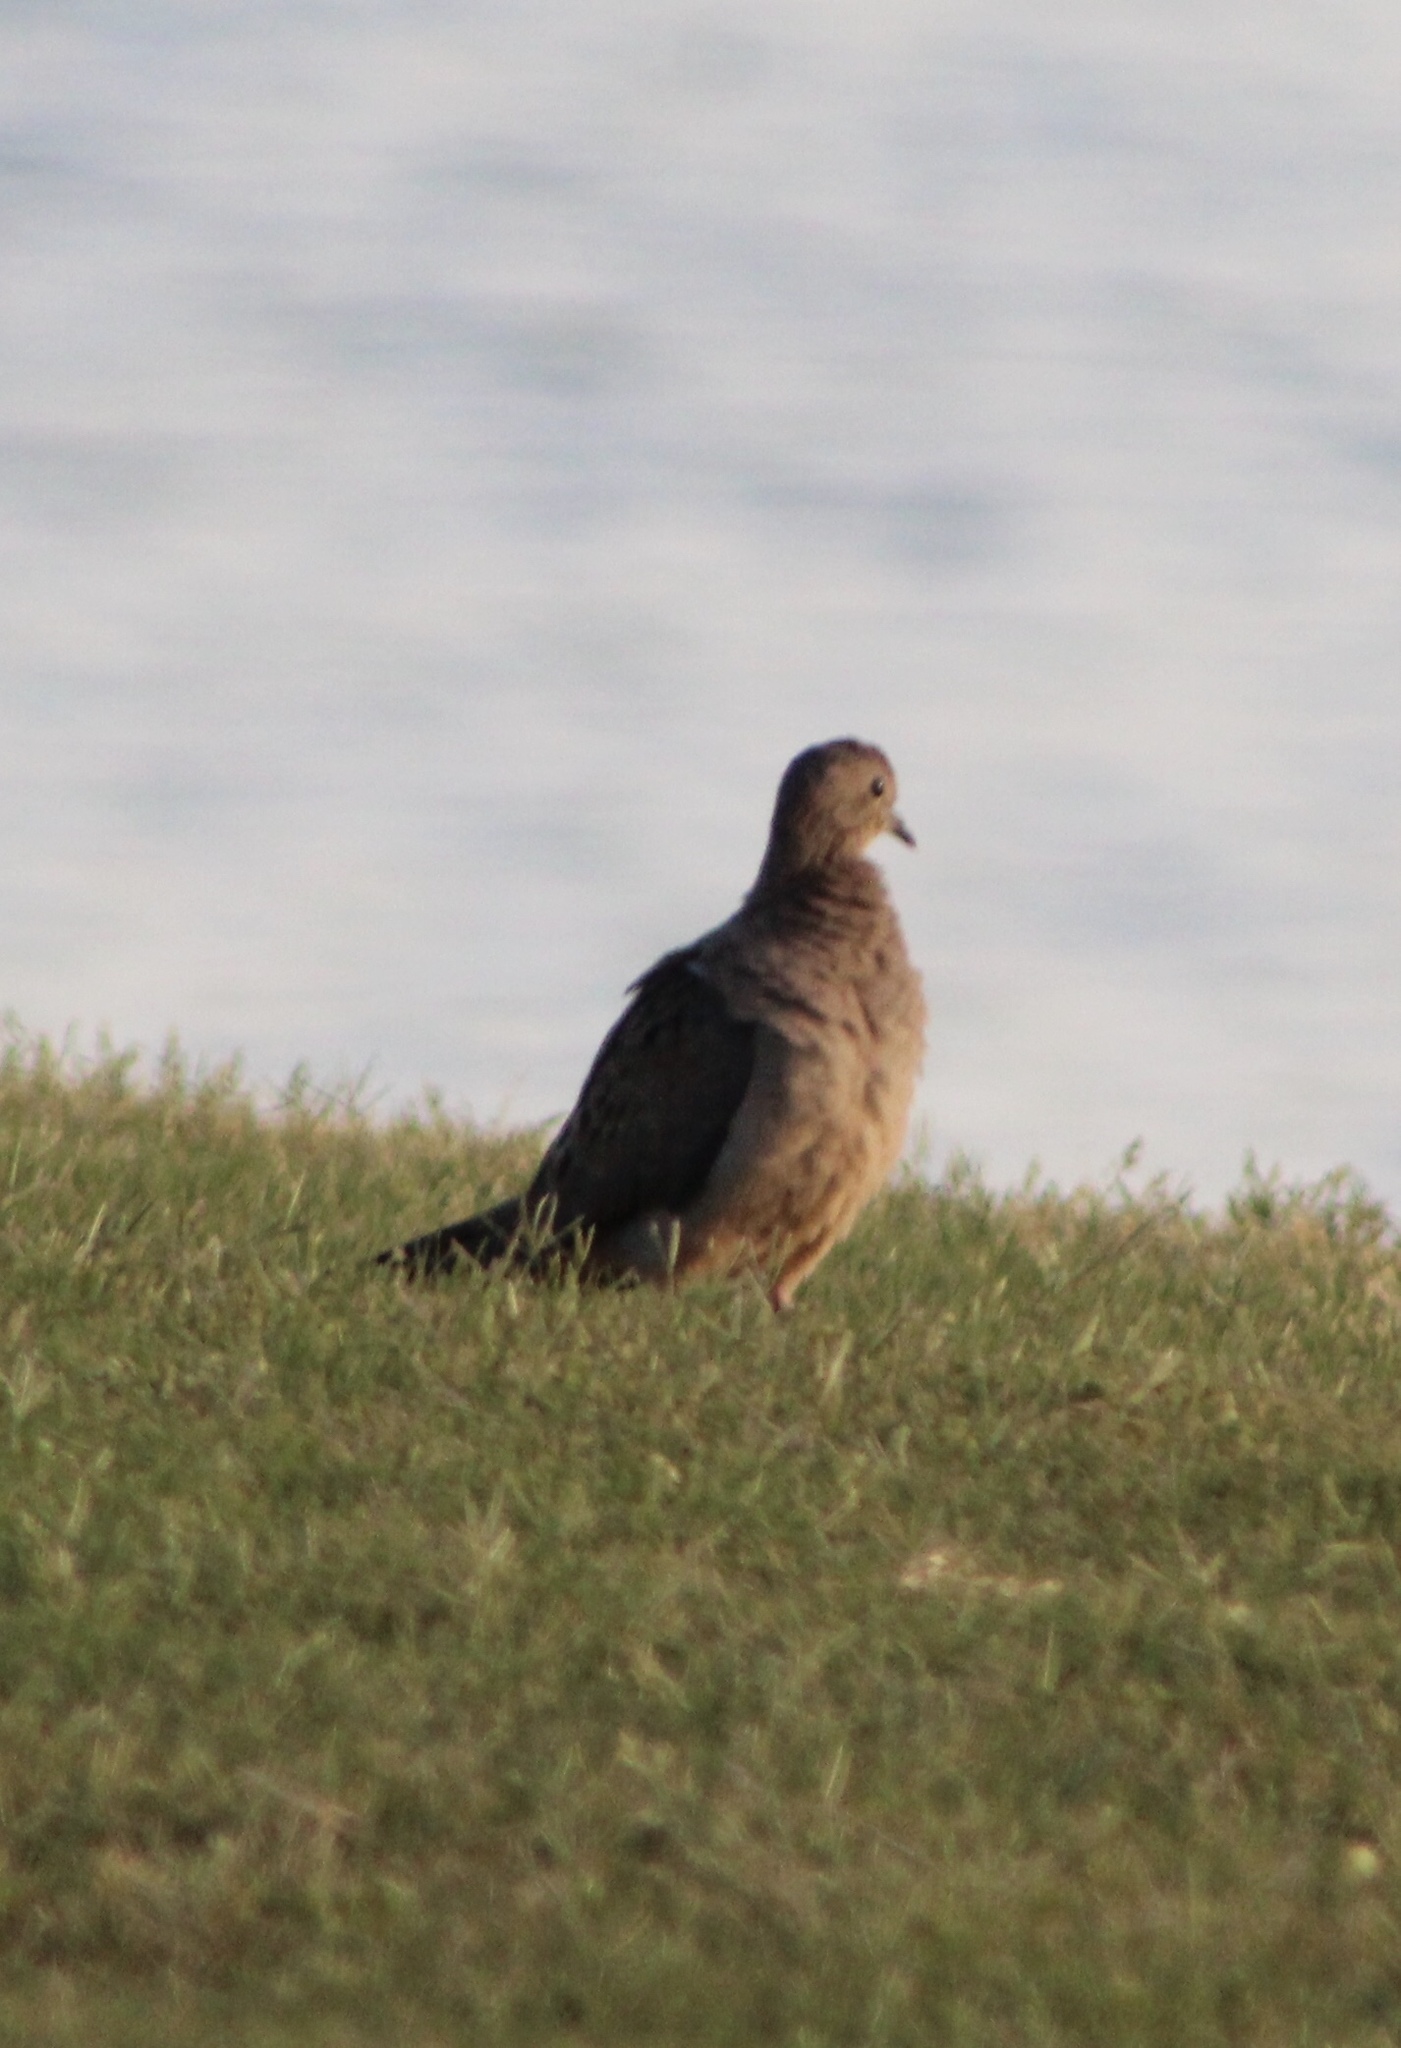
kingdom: Animalia
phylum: Chordata
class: Aves
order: Columbiformes
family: Columbidae
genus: Zenaida
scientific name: Zenaida macroura
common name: Mourning dove
